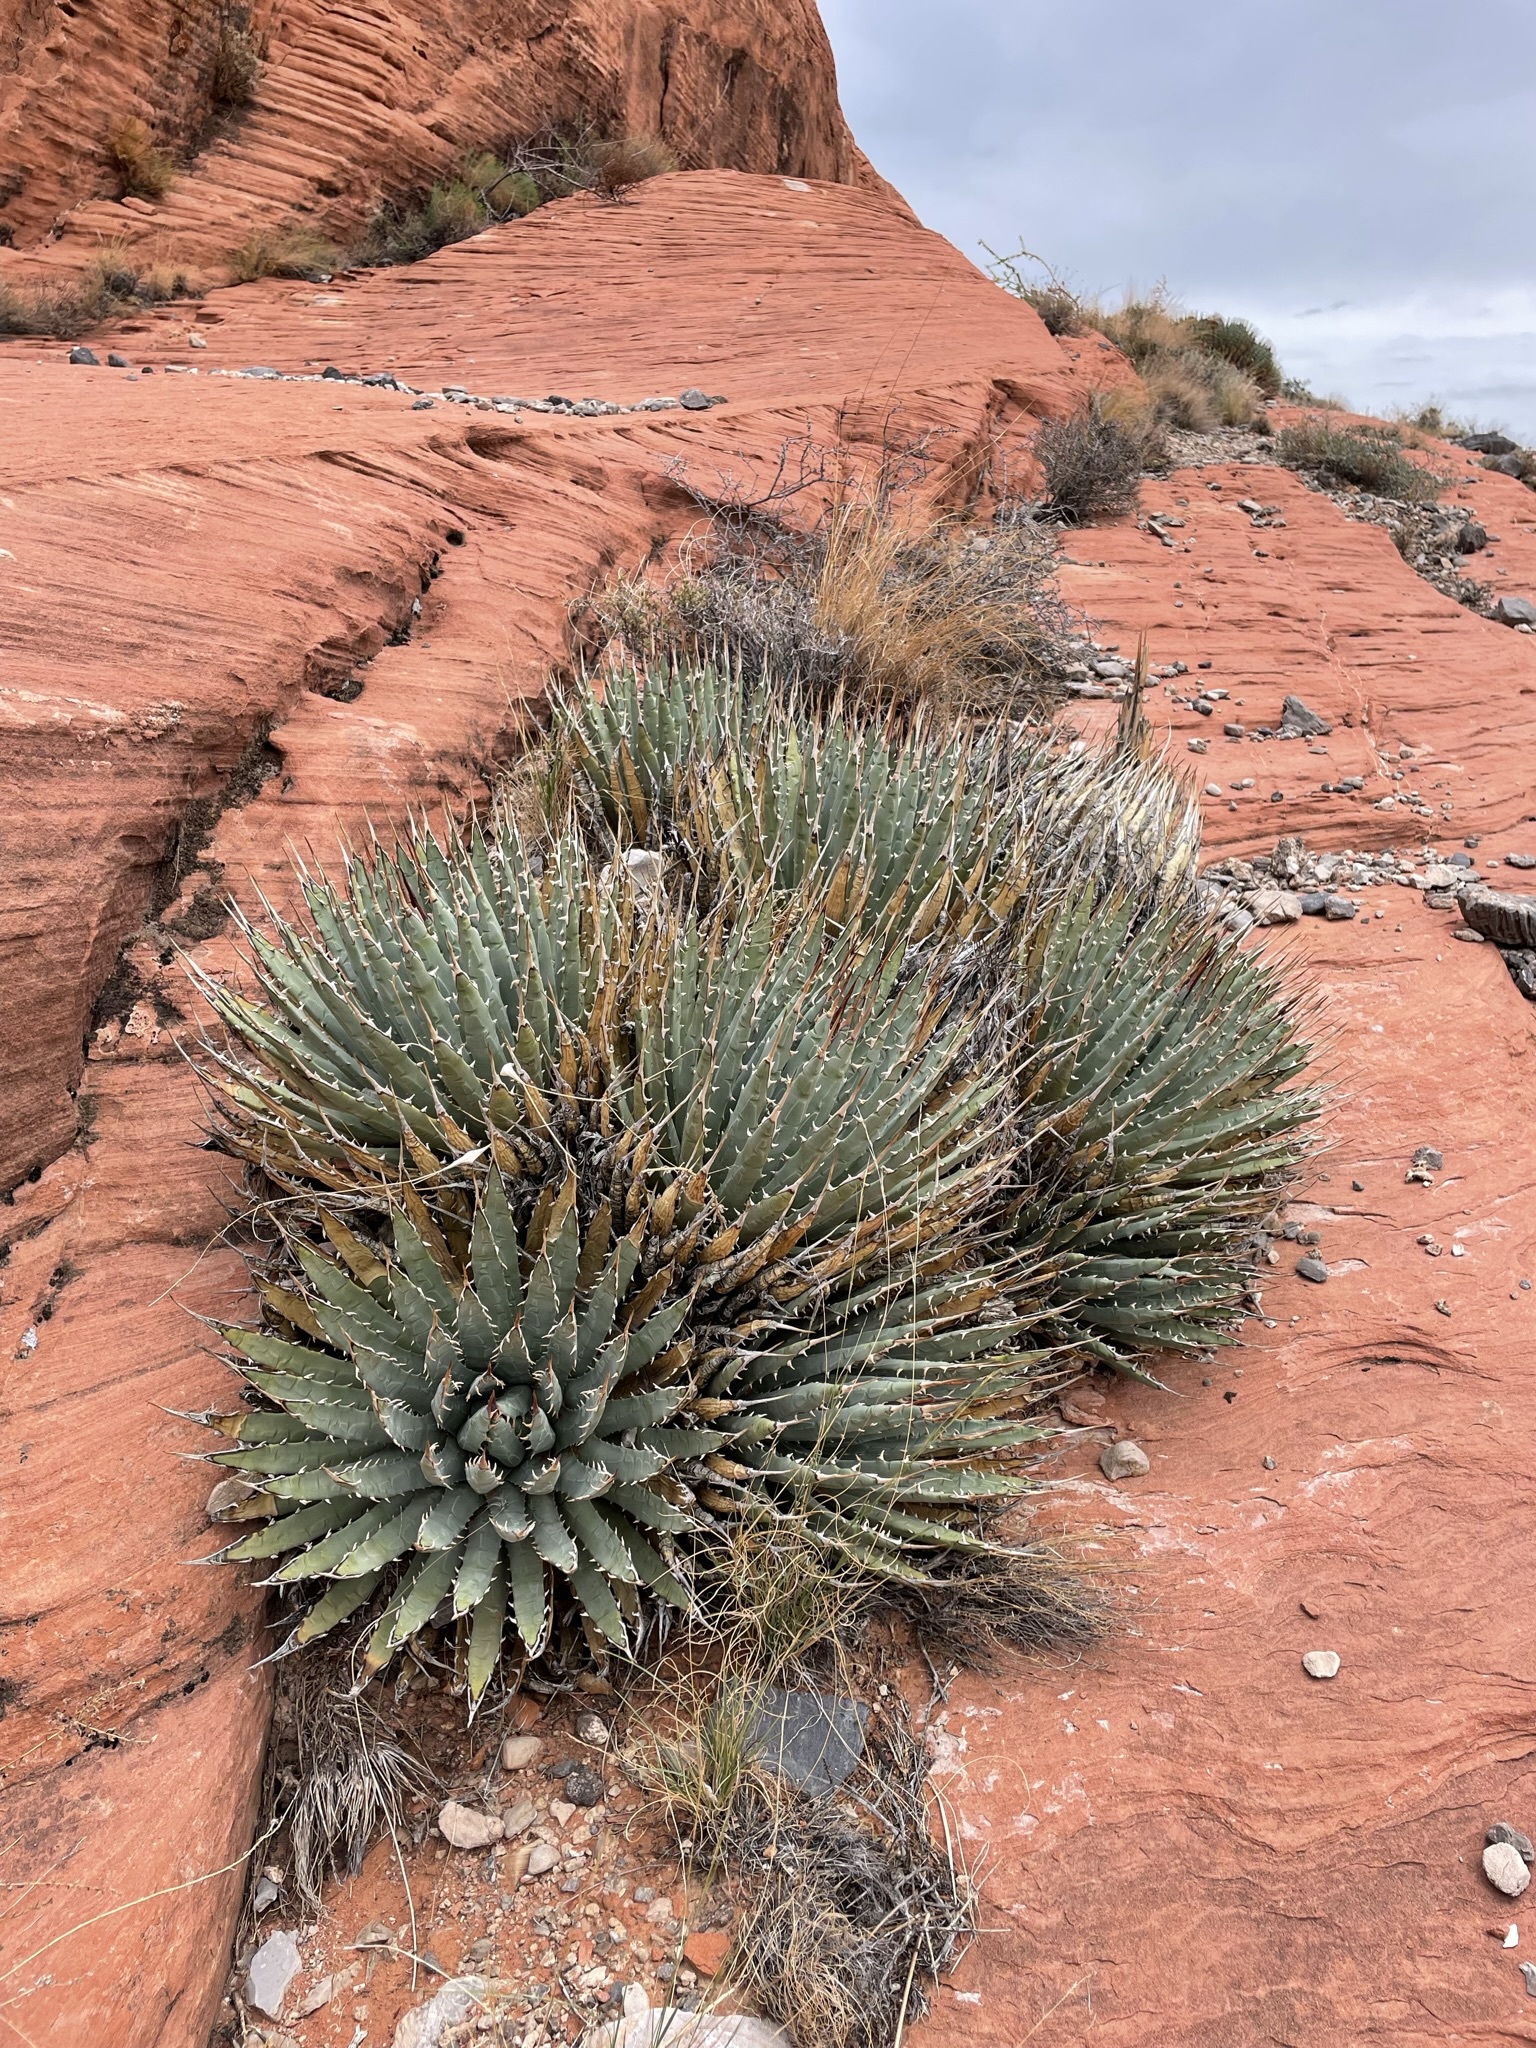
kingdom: Plantae
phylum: Tracheophyta
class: Liliopsida
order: Asparagales
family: Asparagaceae
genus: Agave
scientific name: Agave utahensis
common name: Utah agave
